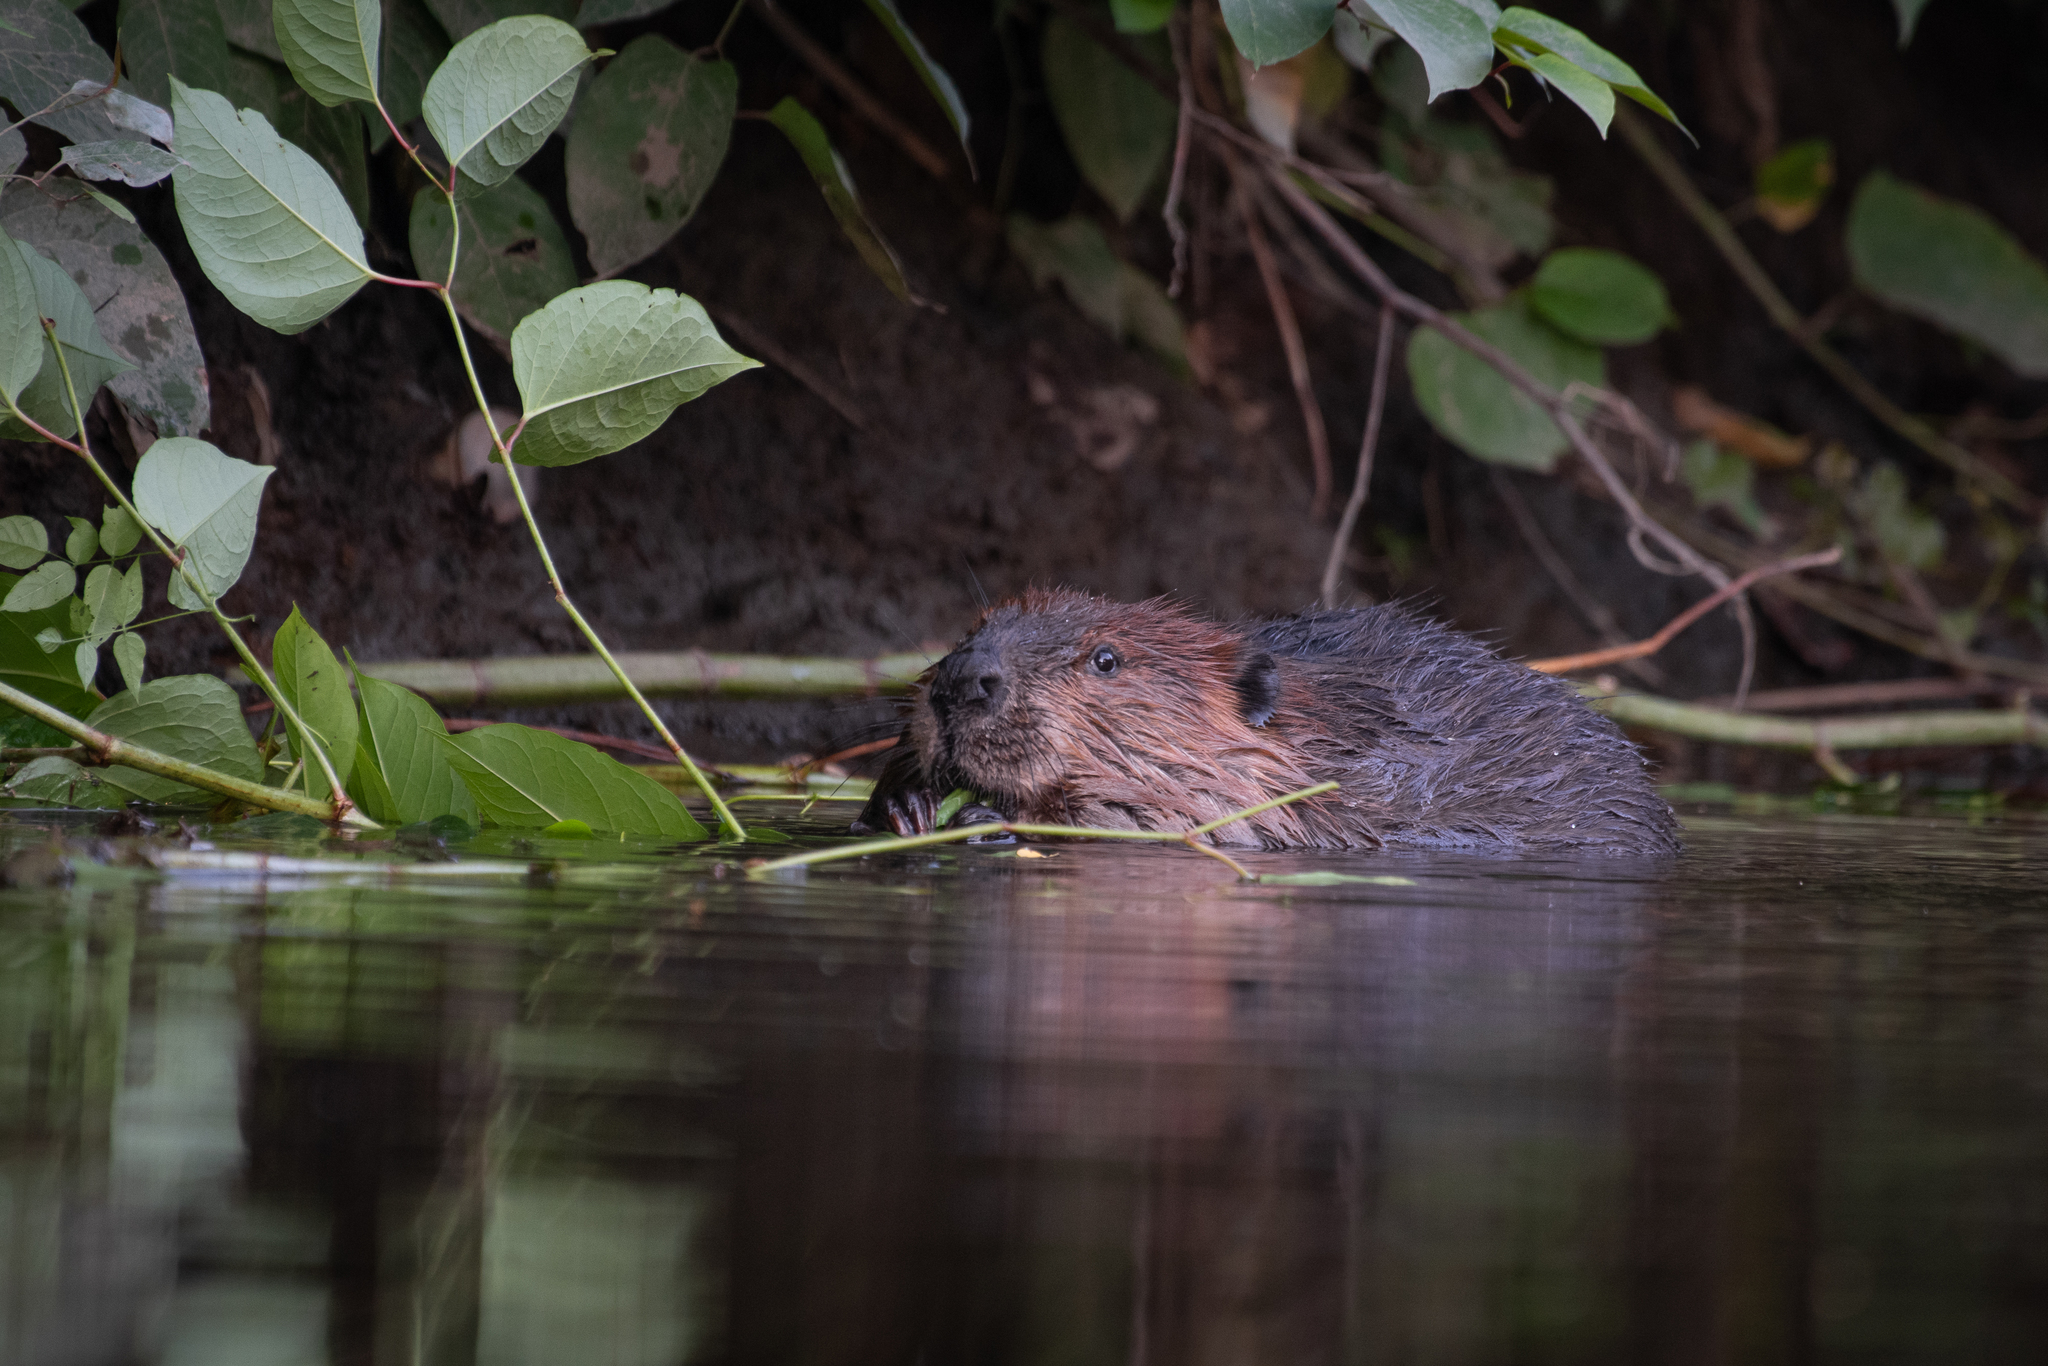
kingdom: Animalia
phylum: Chordata
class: Mammalia
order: Rodentia
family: Castoridae
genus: Castor
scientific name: Castor canadensis
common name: American beaver
